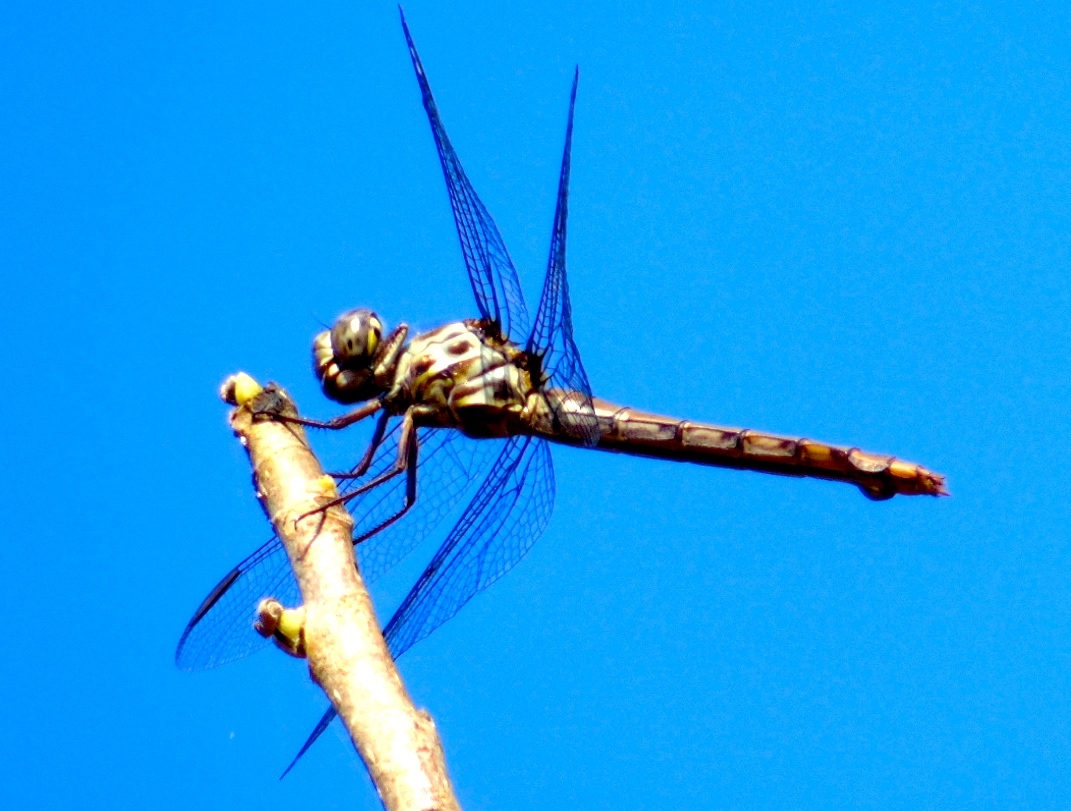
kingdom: Animalia
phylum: Arthropoda
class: Insecta
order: Odonata
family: Libellulidae
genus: Orthemis
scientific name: Orthemis ferruginea
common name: Roseate skimmer
